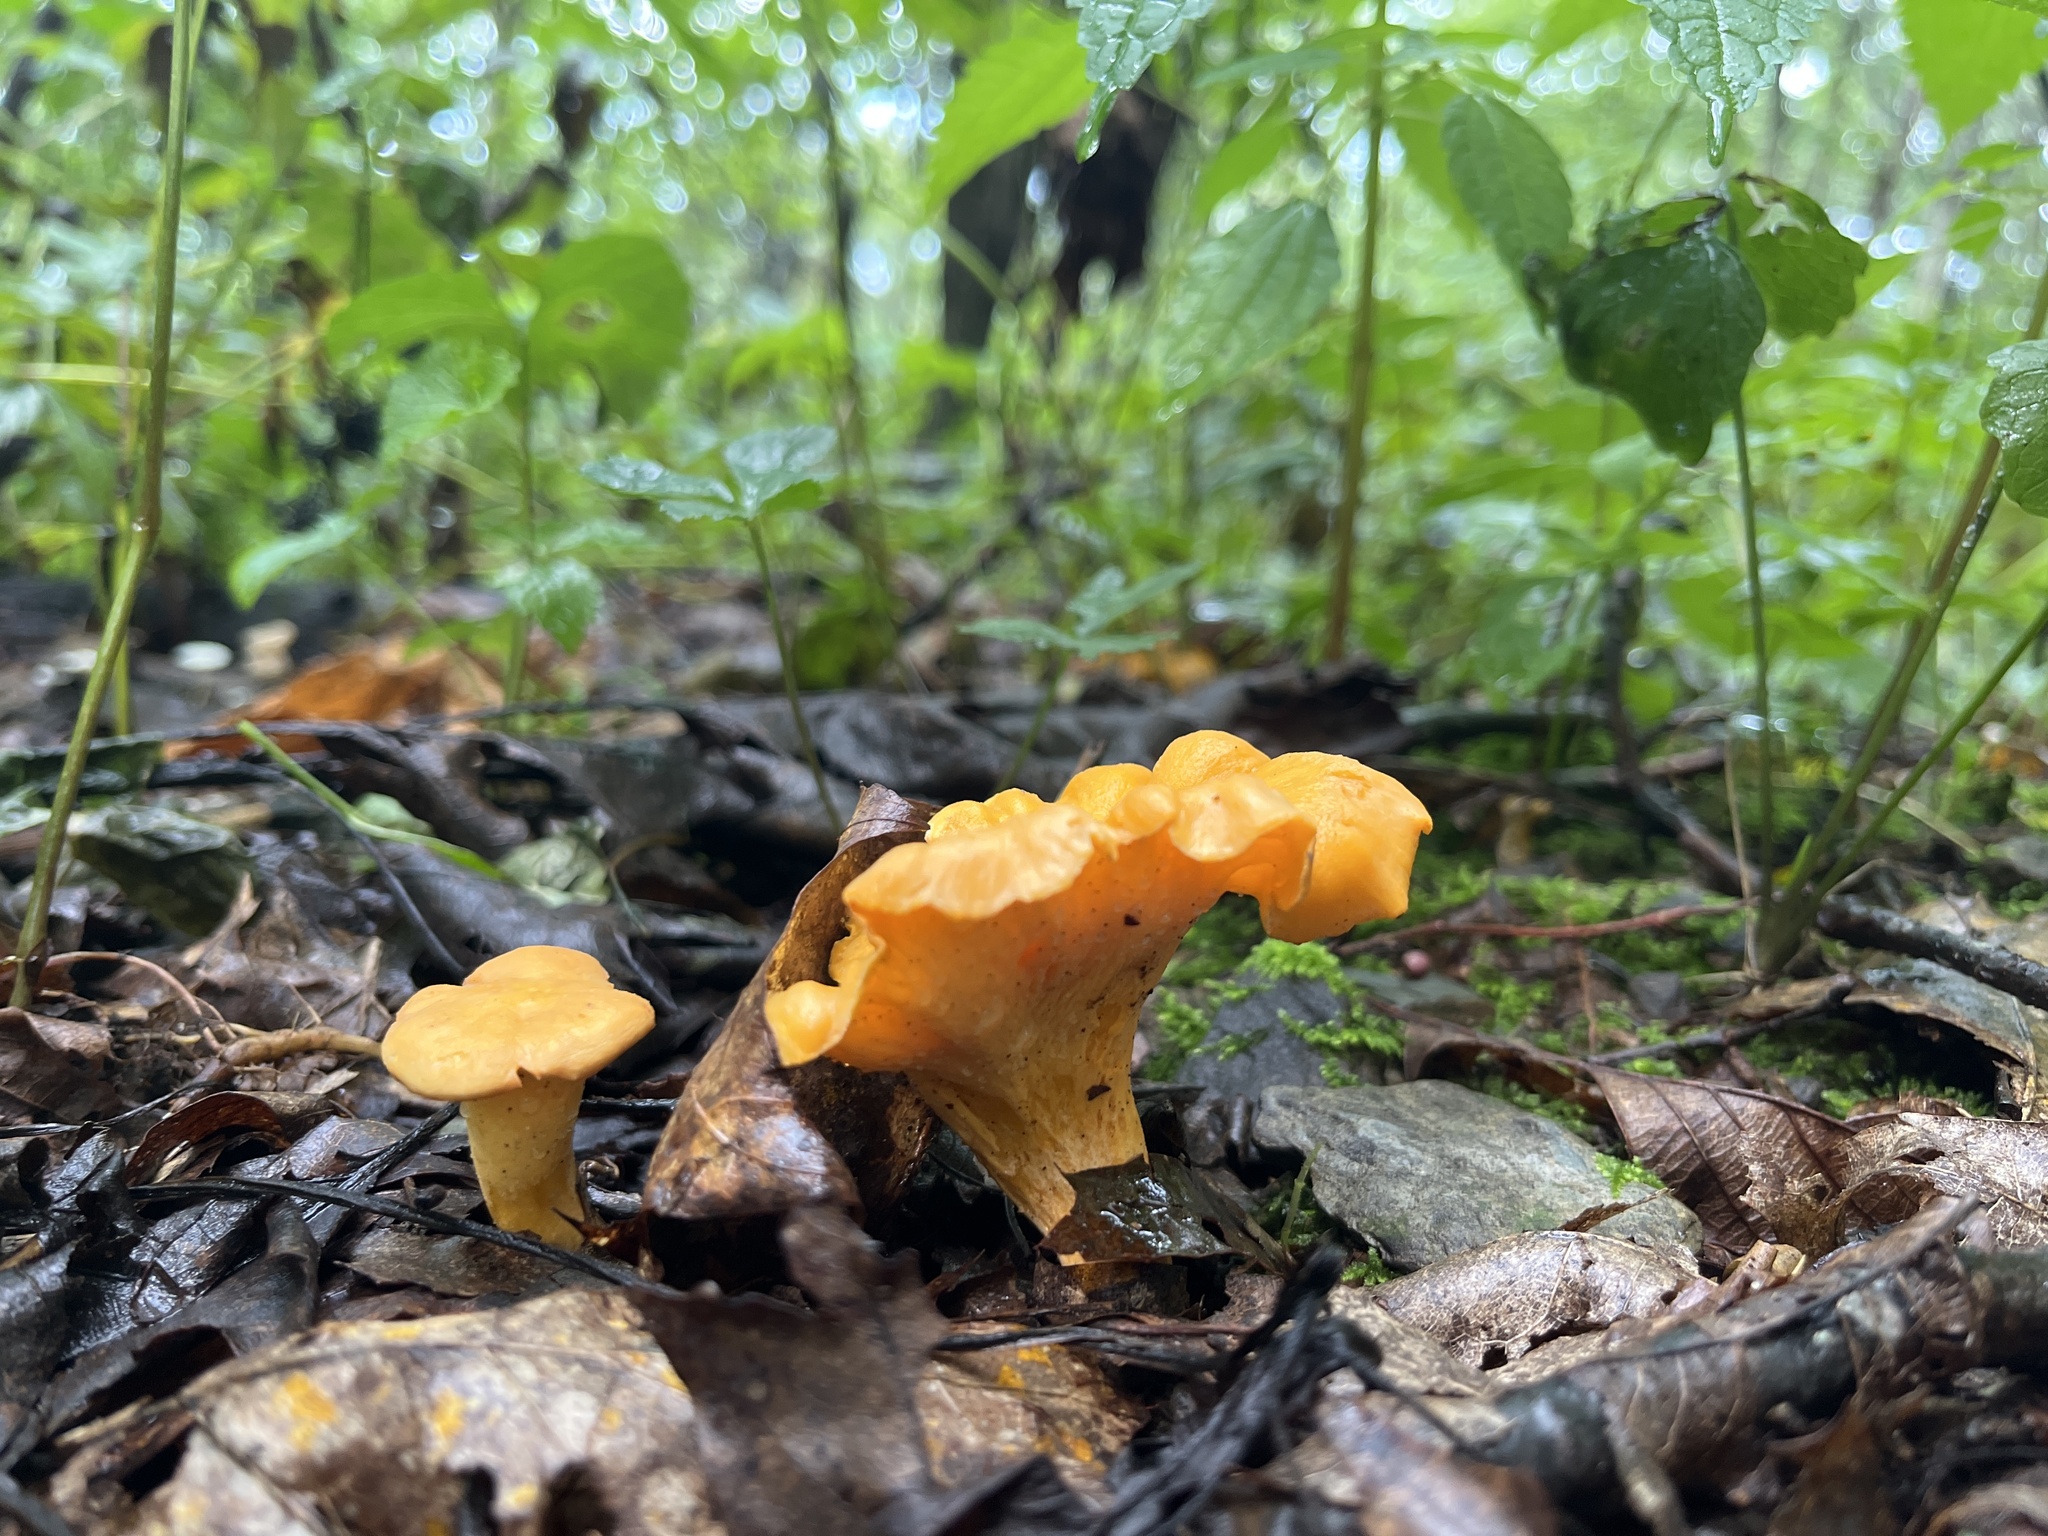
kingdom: Fungi
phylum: Basidiomycota
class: Agaricomycetes
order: Cantharellales
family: Hydnaceae
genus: Cantharellus
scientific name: Cantharellus lateritius
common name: Smooth chanterelle
